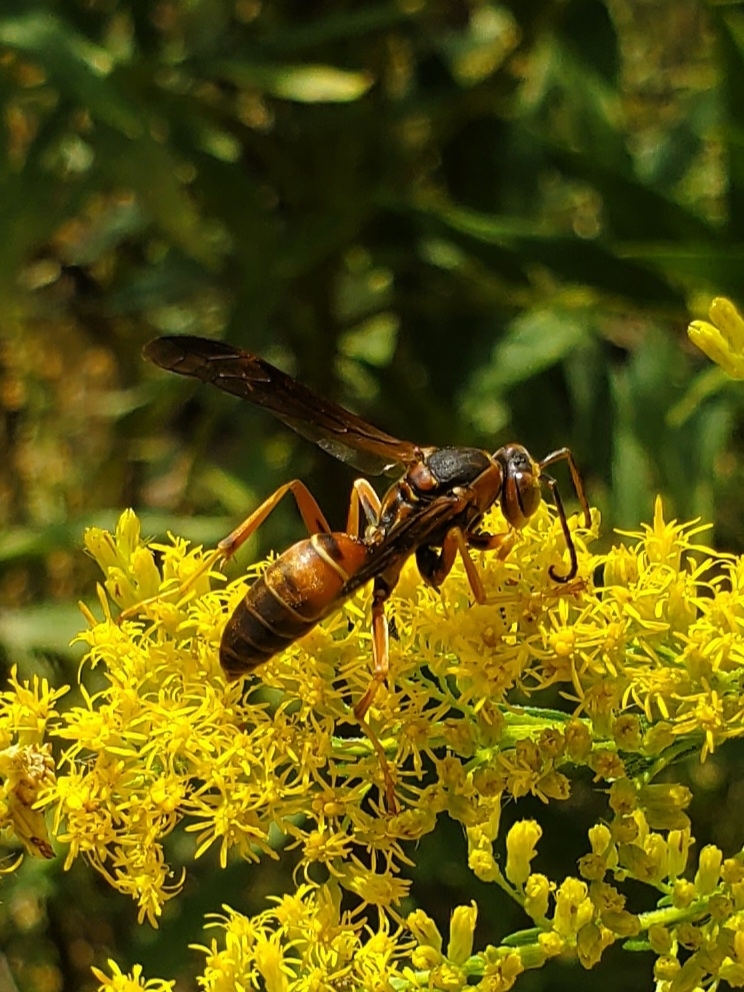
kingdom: Animalia
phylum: Arthropoda
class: Insecta
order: Hymenoptera
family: Eumenidae
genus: Polistes
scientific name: Polistes fuscatus
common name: Dark paper wasp
